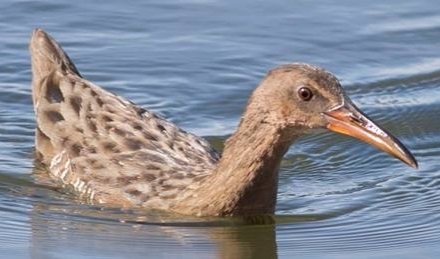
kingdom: Animalia
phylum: Chordata
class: Aves
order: Gruiformes
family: Rallidae
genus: Rallus
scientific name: Rallus obsoletus
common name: Ridgway's rail
